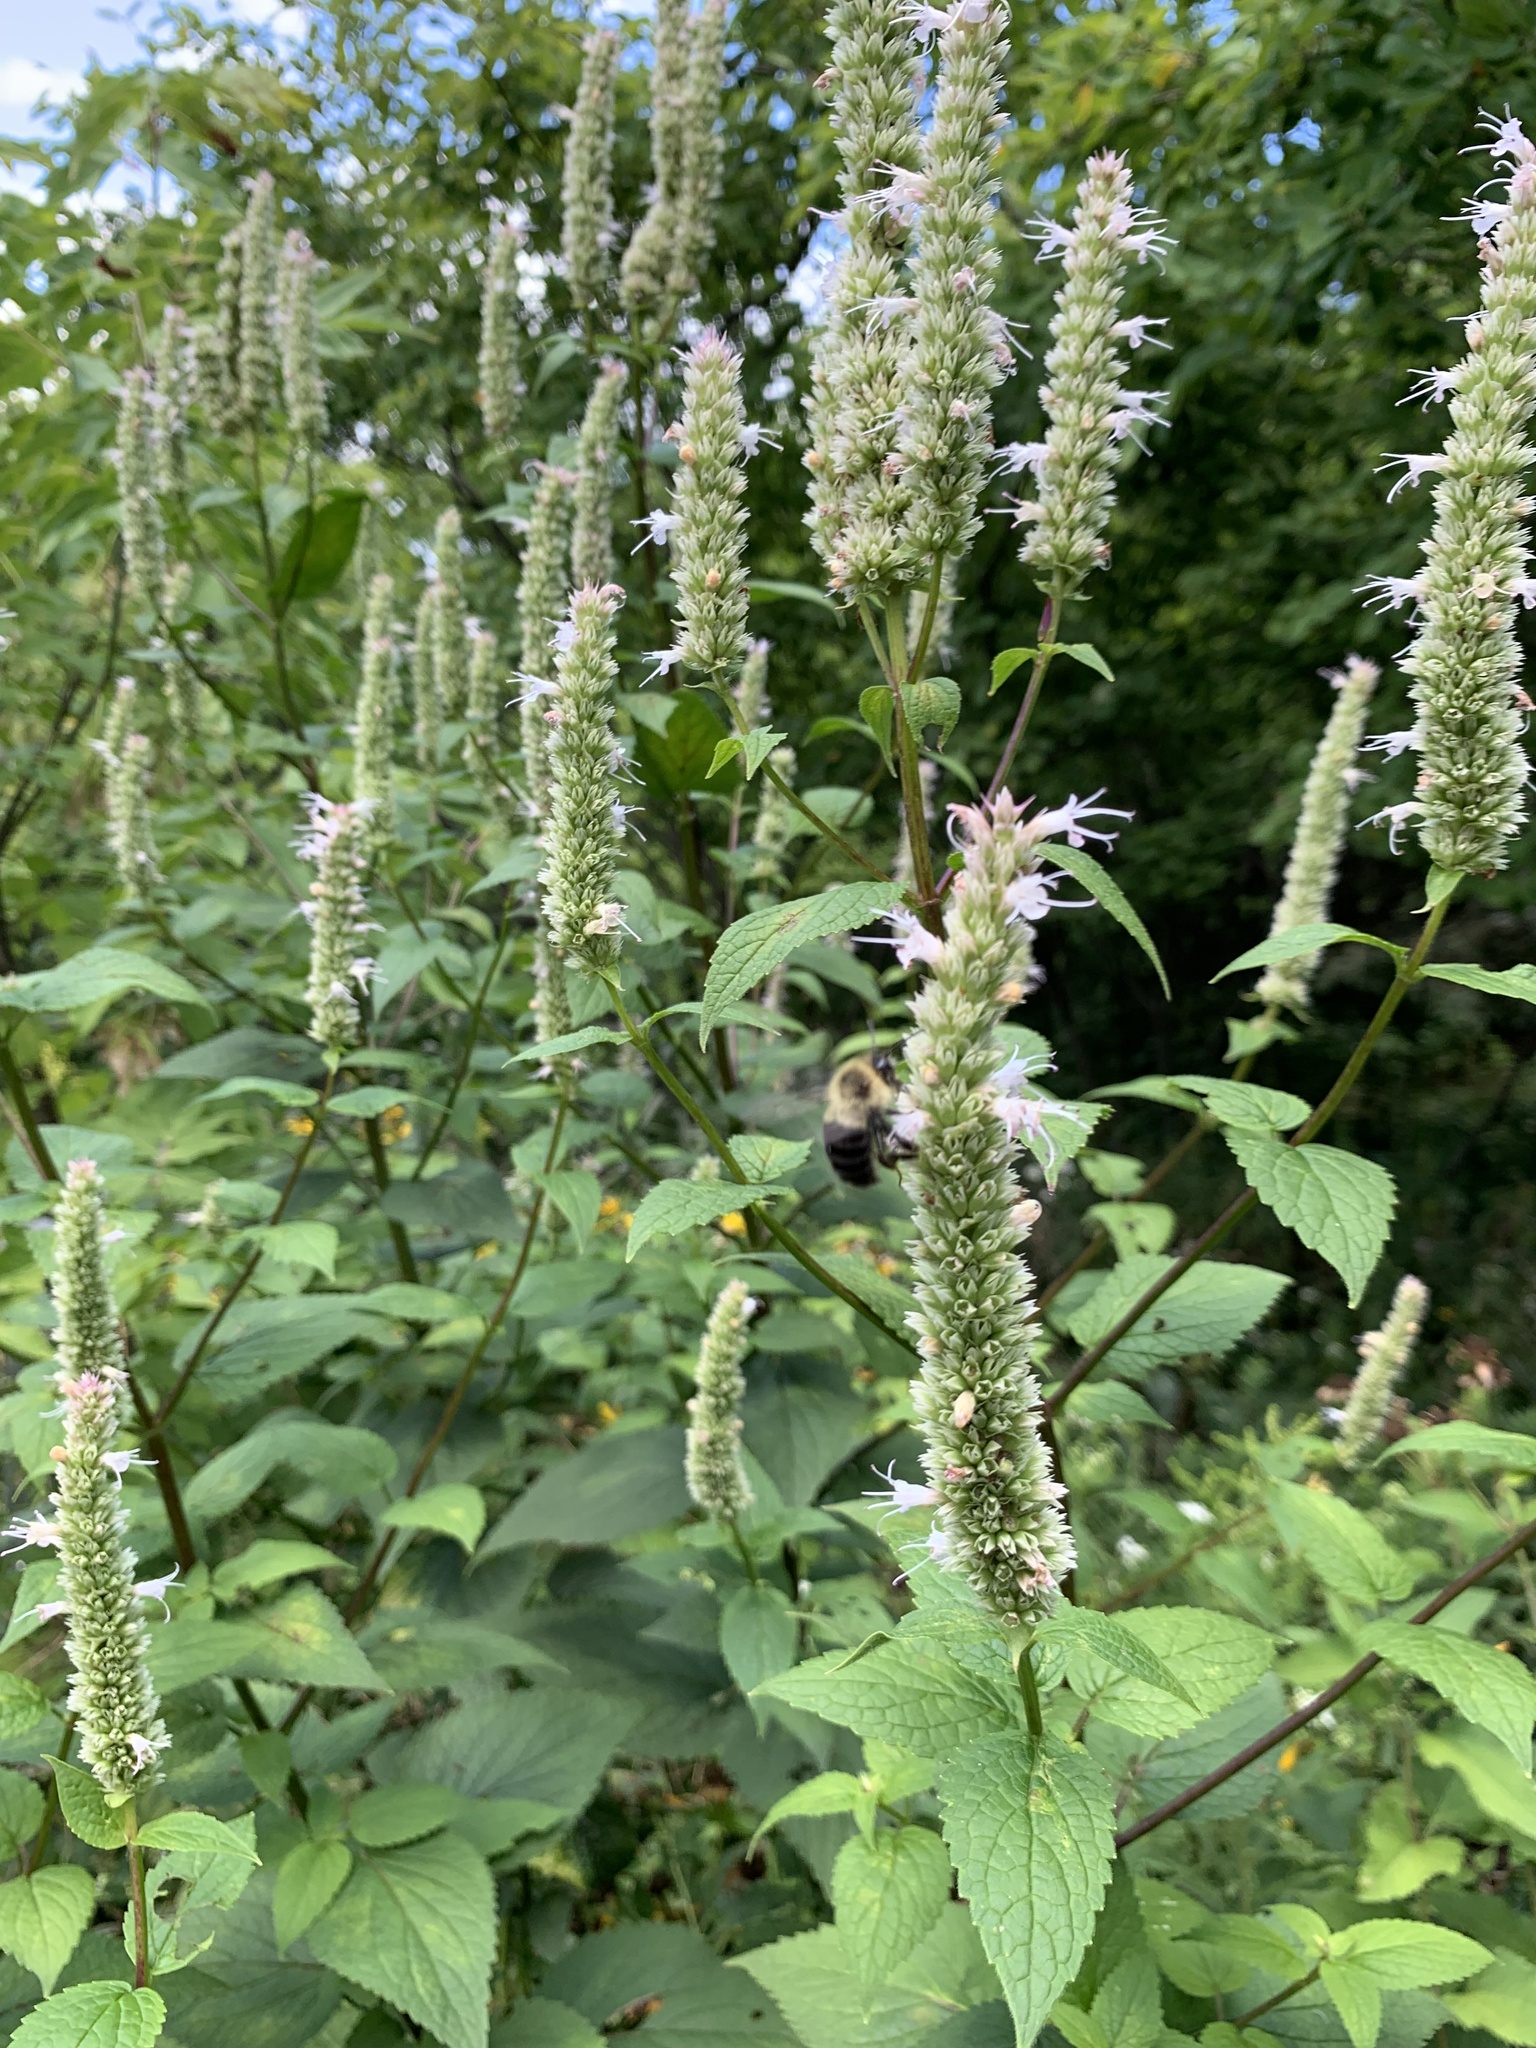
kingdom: Animalia
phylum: Arthropoda
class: Insecta
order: Hymenoptera
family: Apidae
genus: Bombus
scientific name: Bombus impatiens
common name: Common eastern bumble bee
